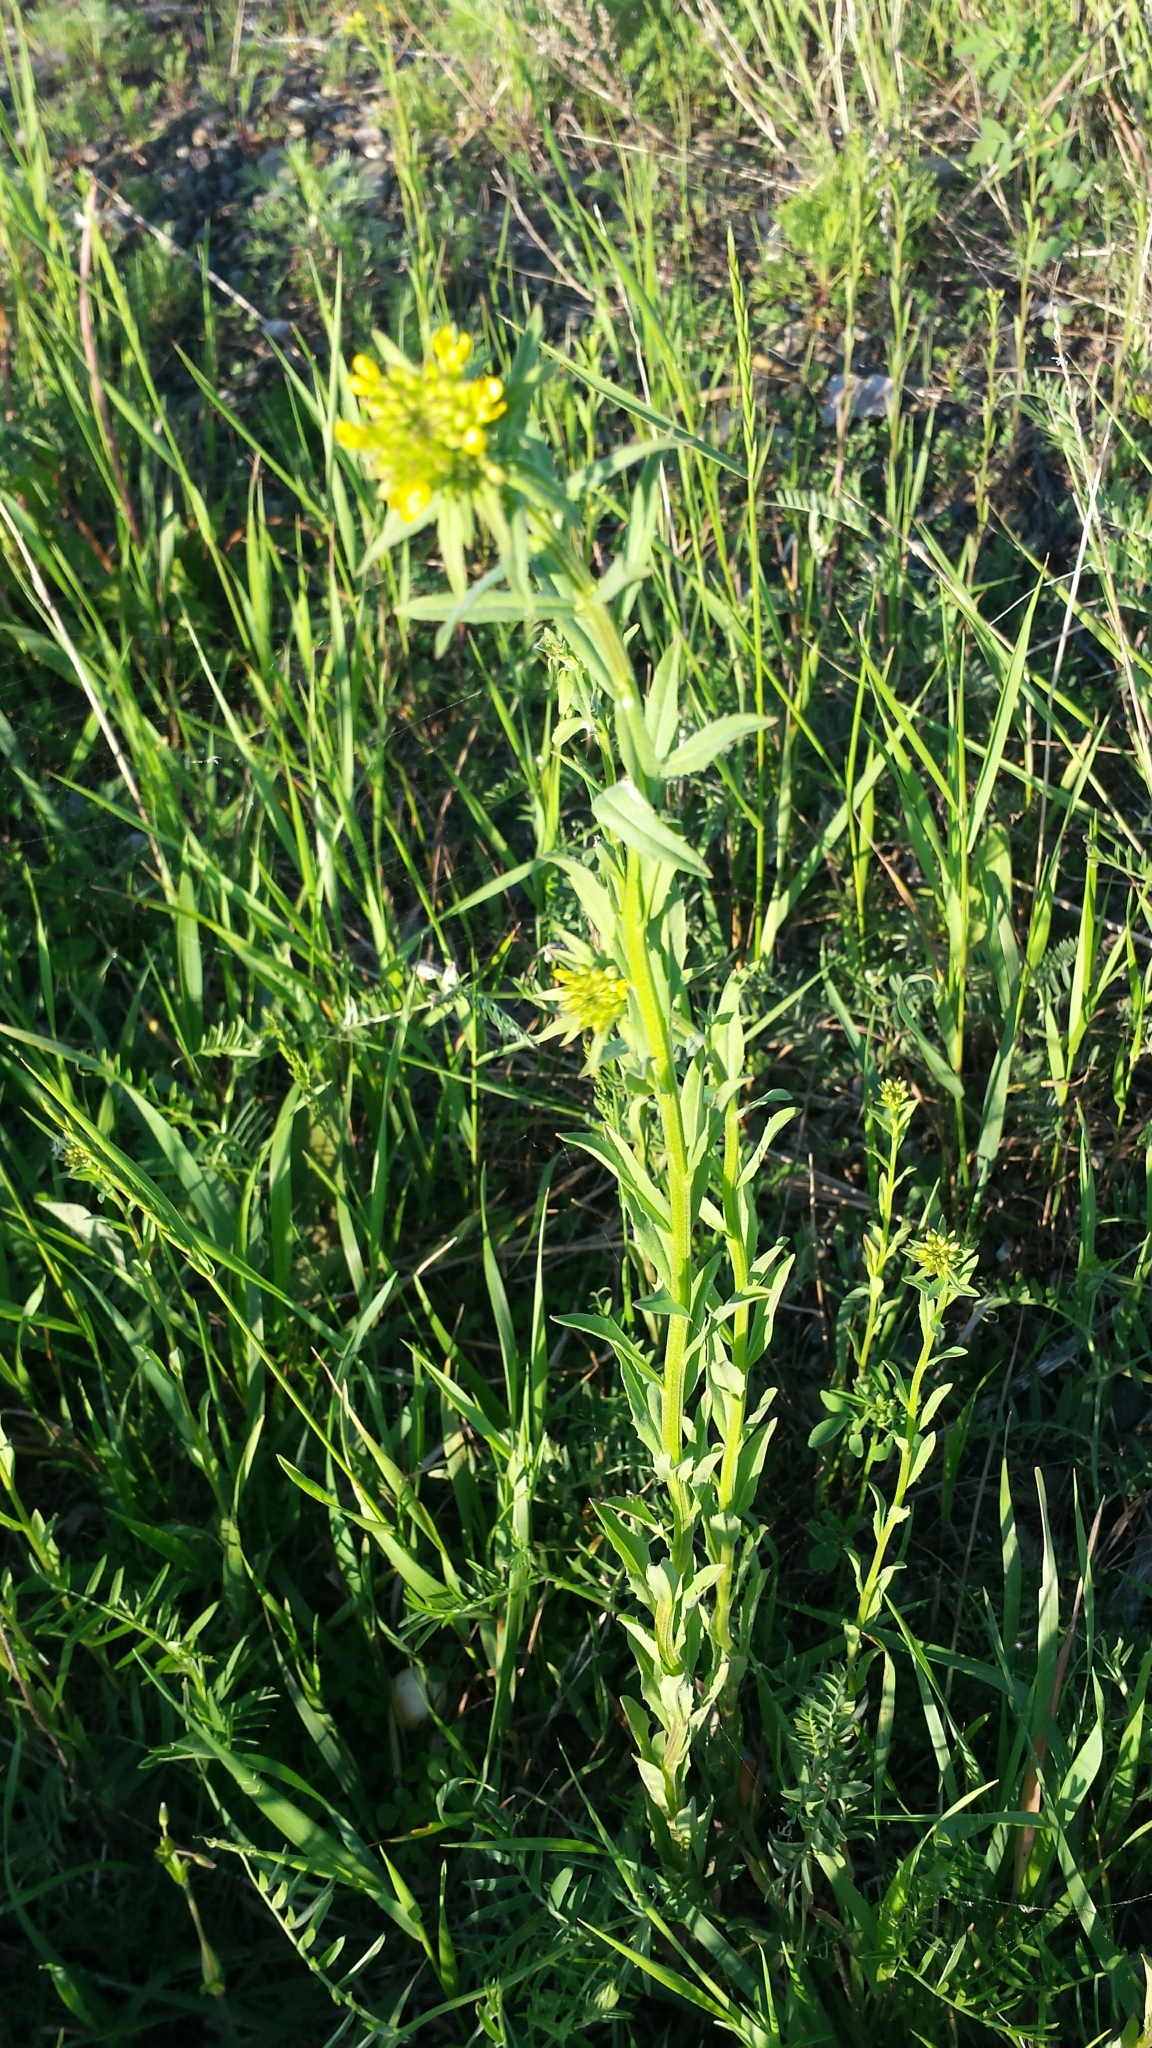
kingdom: Plantae
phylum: Tracheophyta
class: Magnoliopsida
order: Brassicales
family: Brassicaceae
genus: Erysimum
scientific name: Erysimum cheiranthoides
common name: Treacle mustard
